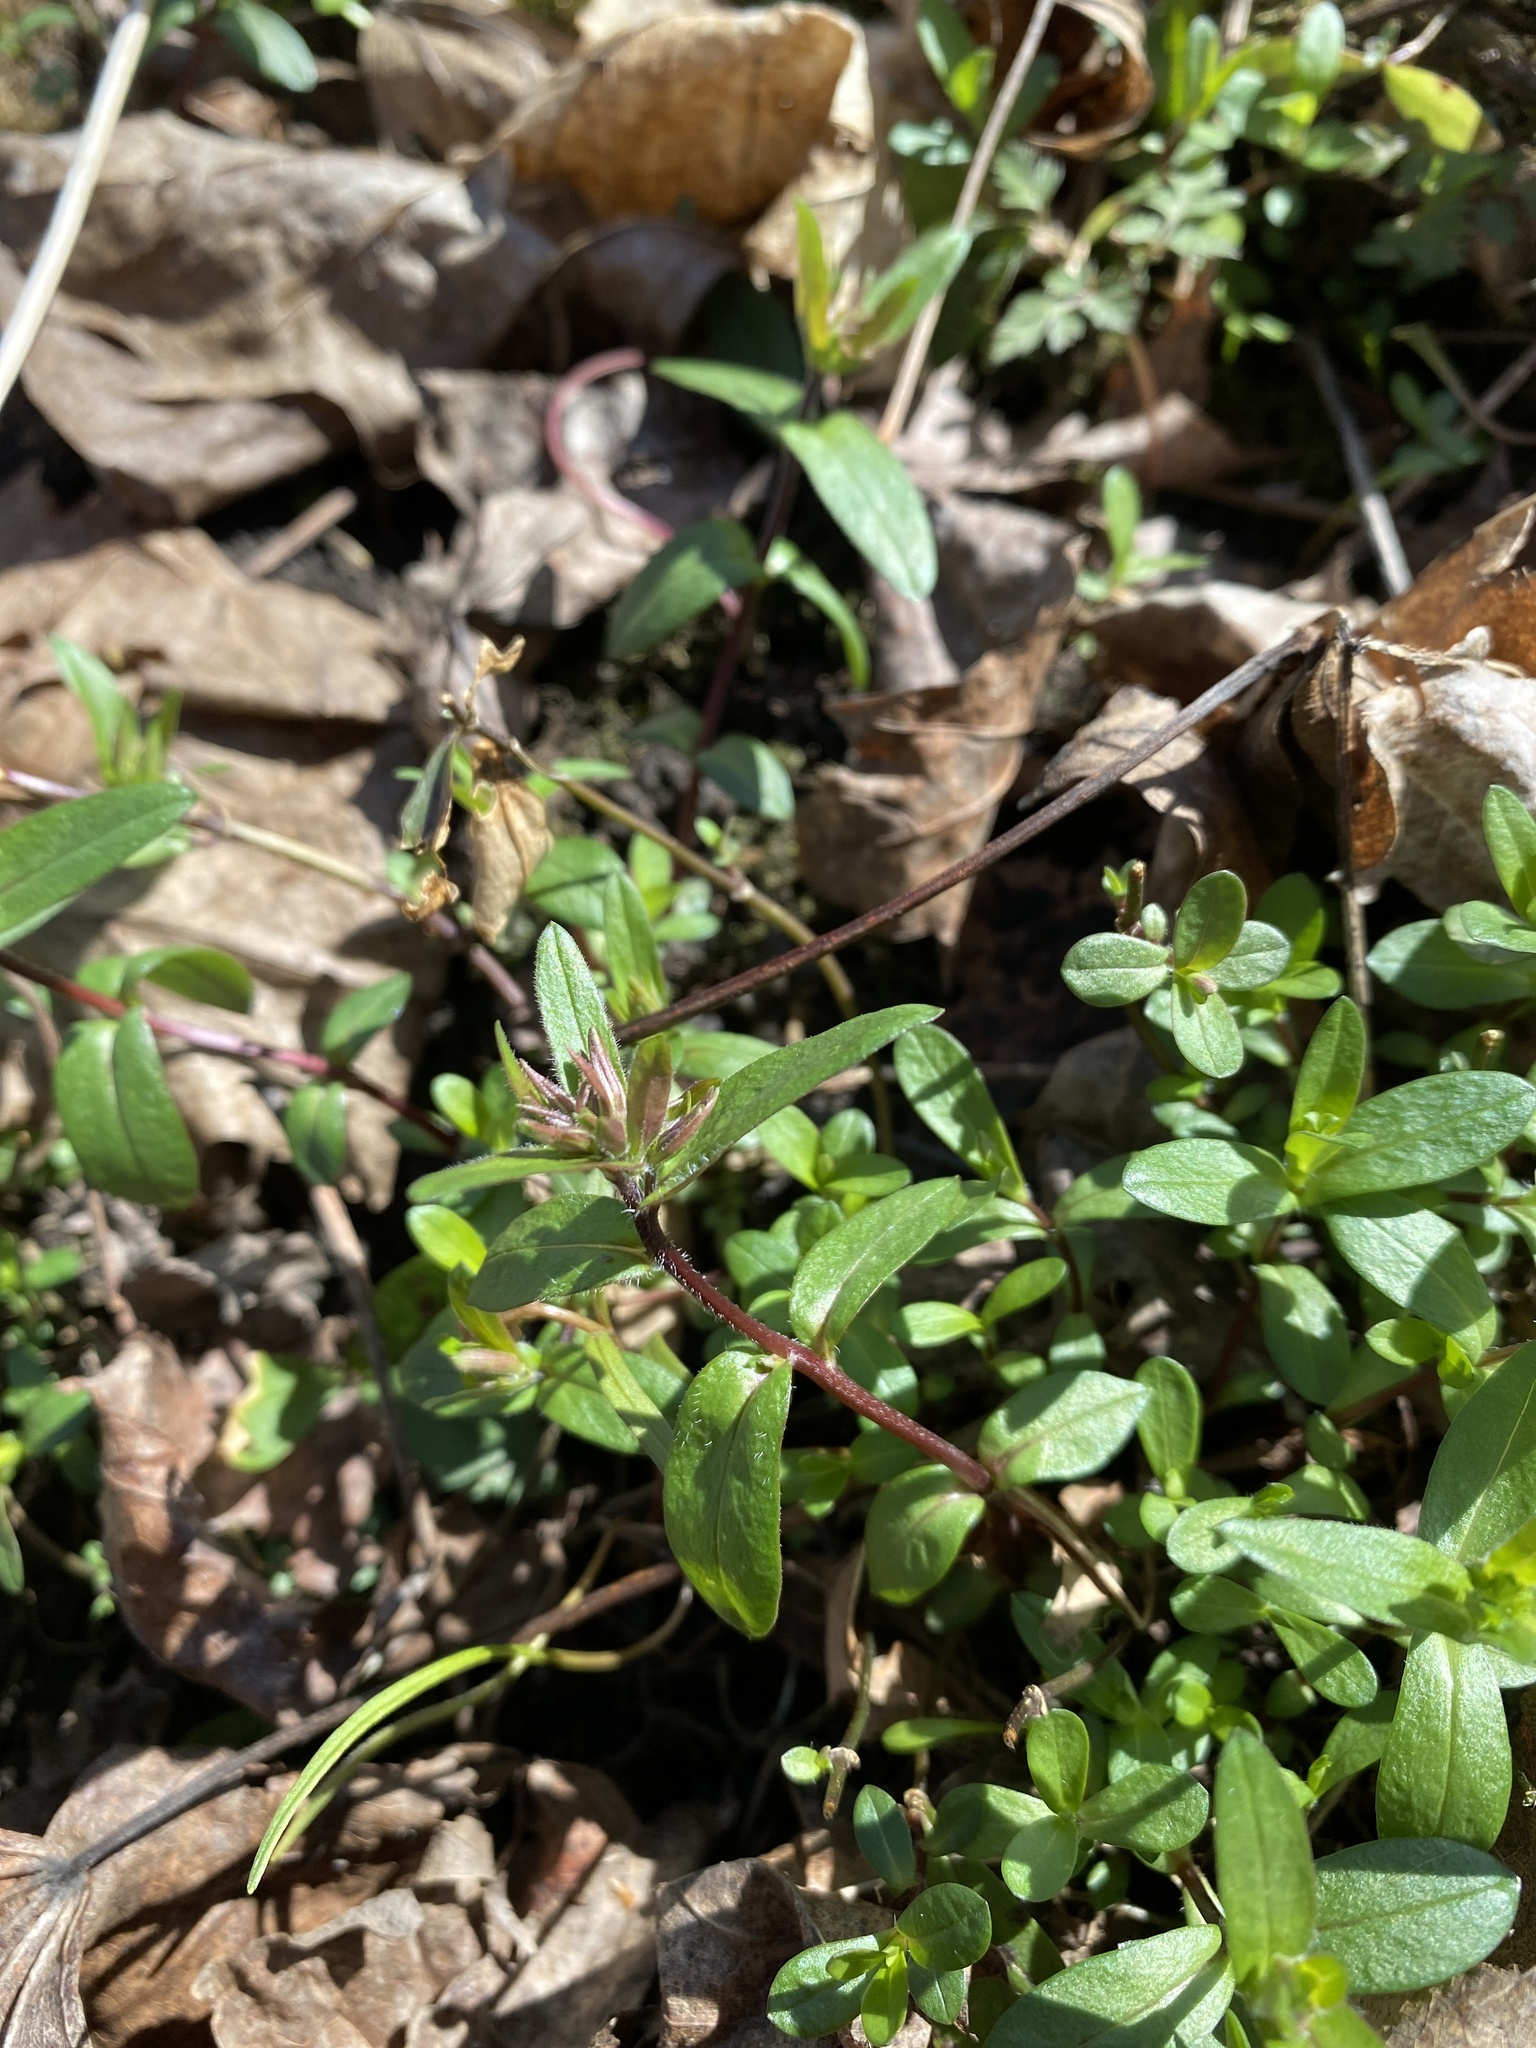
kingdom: Plantae
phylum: Tracheophyta
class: Magnoliopsida
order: Ericales
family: Polemoniaceae
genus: Phlox
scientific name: Phlox divaricata
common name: Blue phlox
